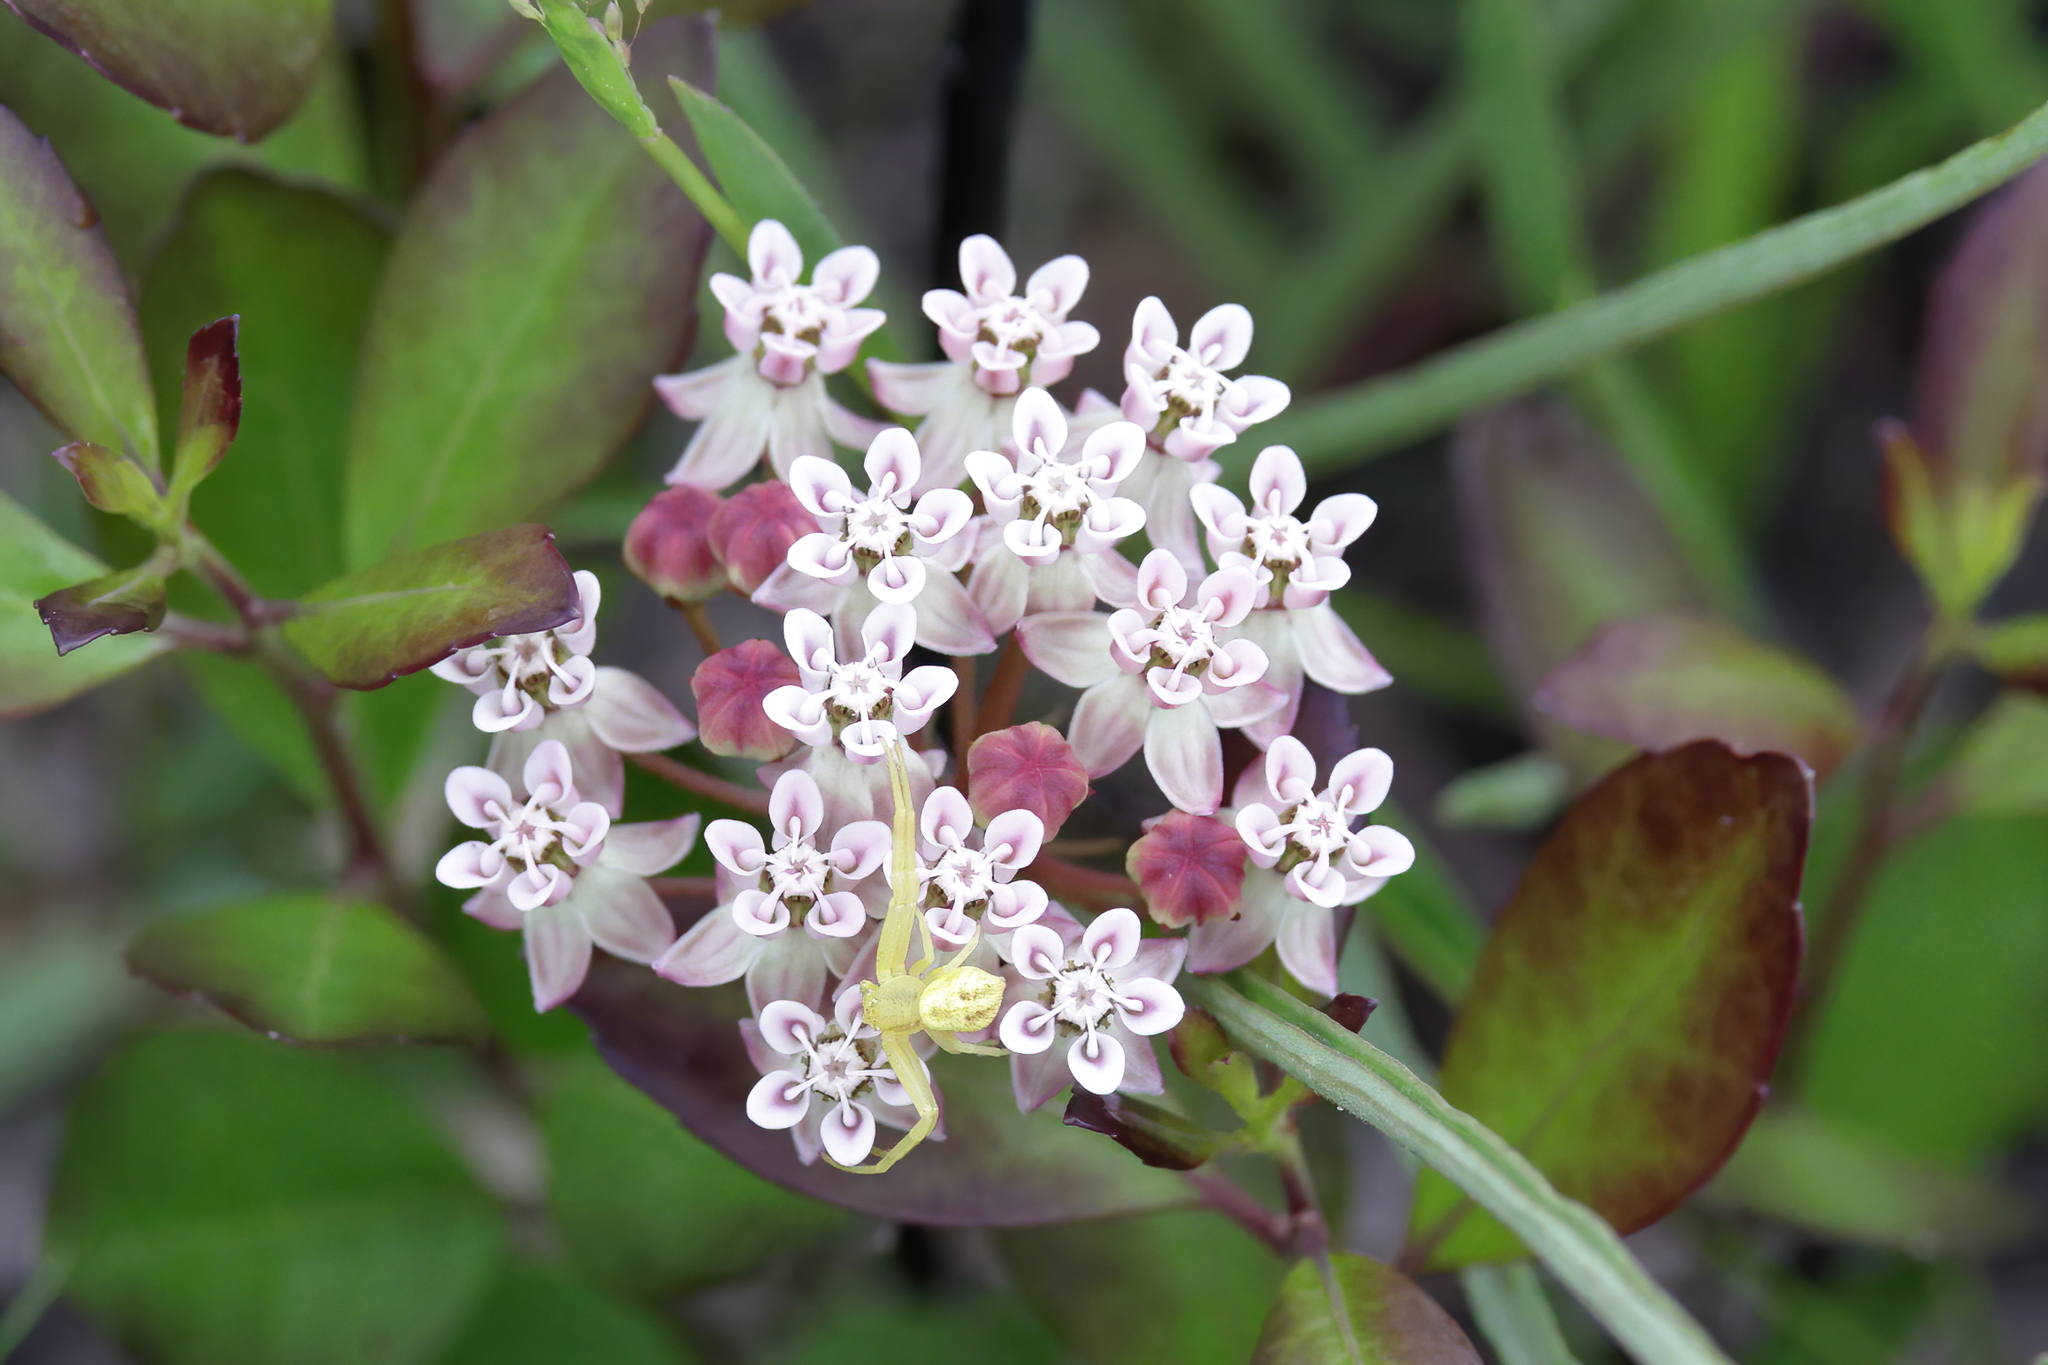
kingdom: Plantae
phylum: Tracheophyta
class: Magnoliopsida
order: Gentianales
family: Apocynaceae
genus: Asclepias
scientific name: Asclepias michauxii
